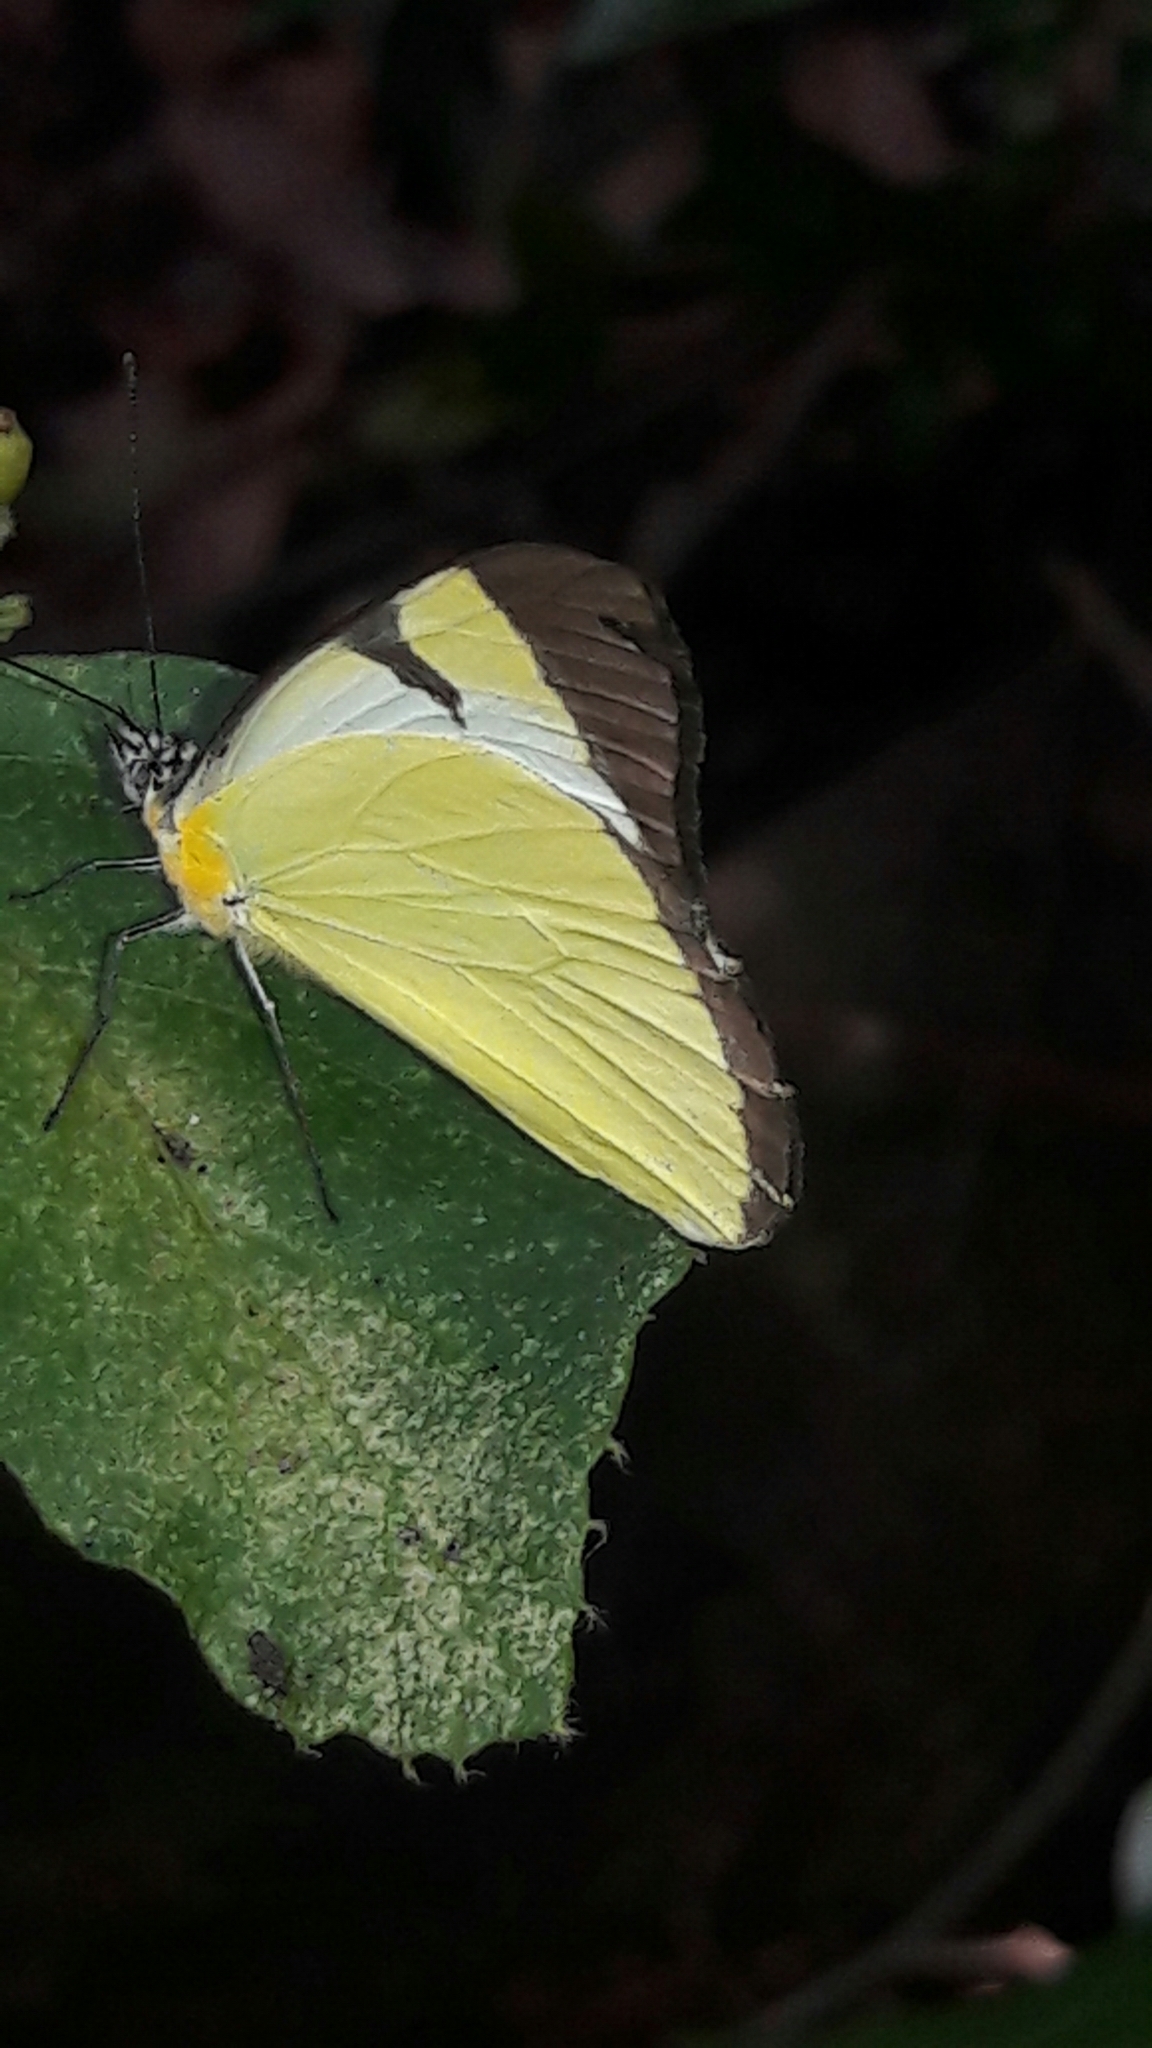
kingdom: Animalia
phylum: Arthropoda
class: Insecta
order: Lepidoptera
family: Pieridae
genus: Melete
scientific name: Melete lycimnia
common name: Common melwhite
